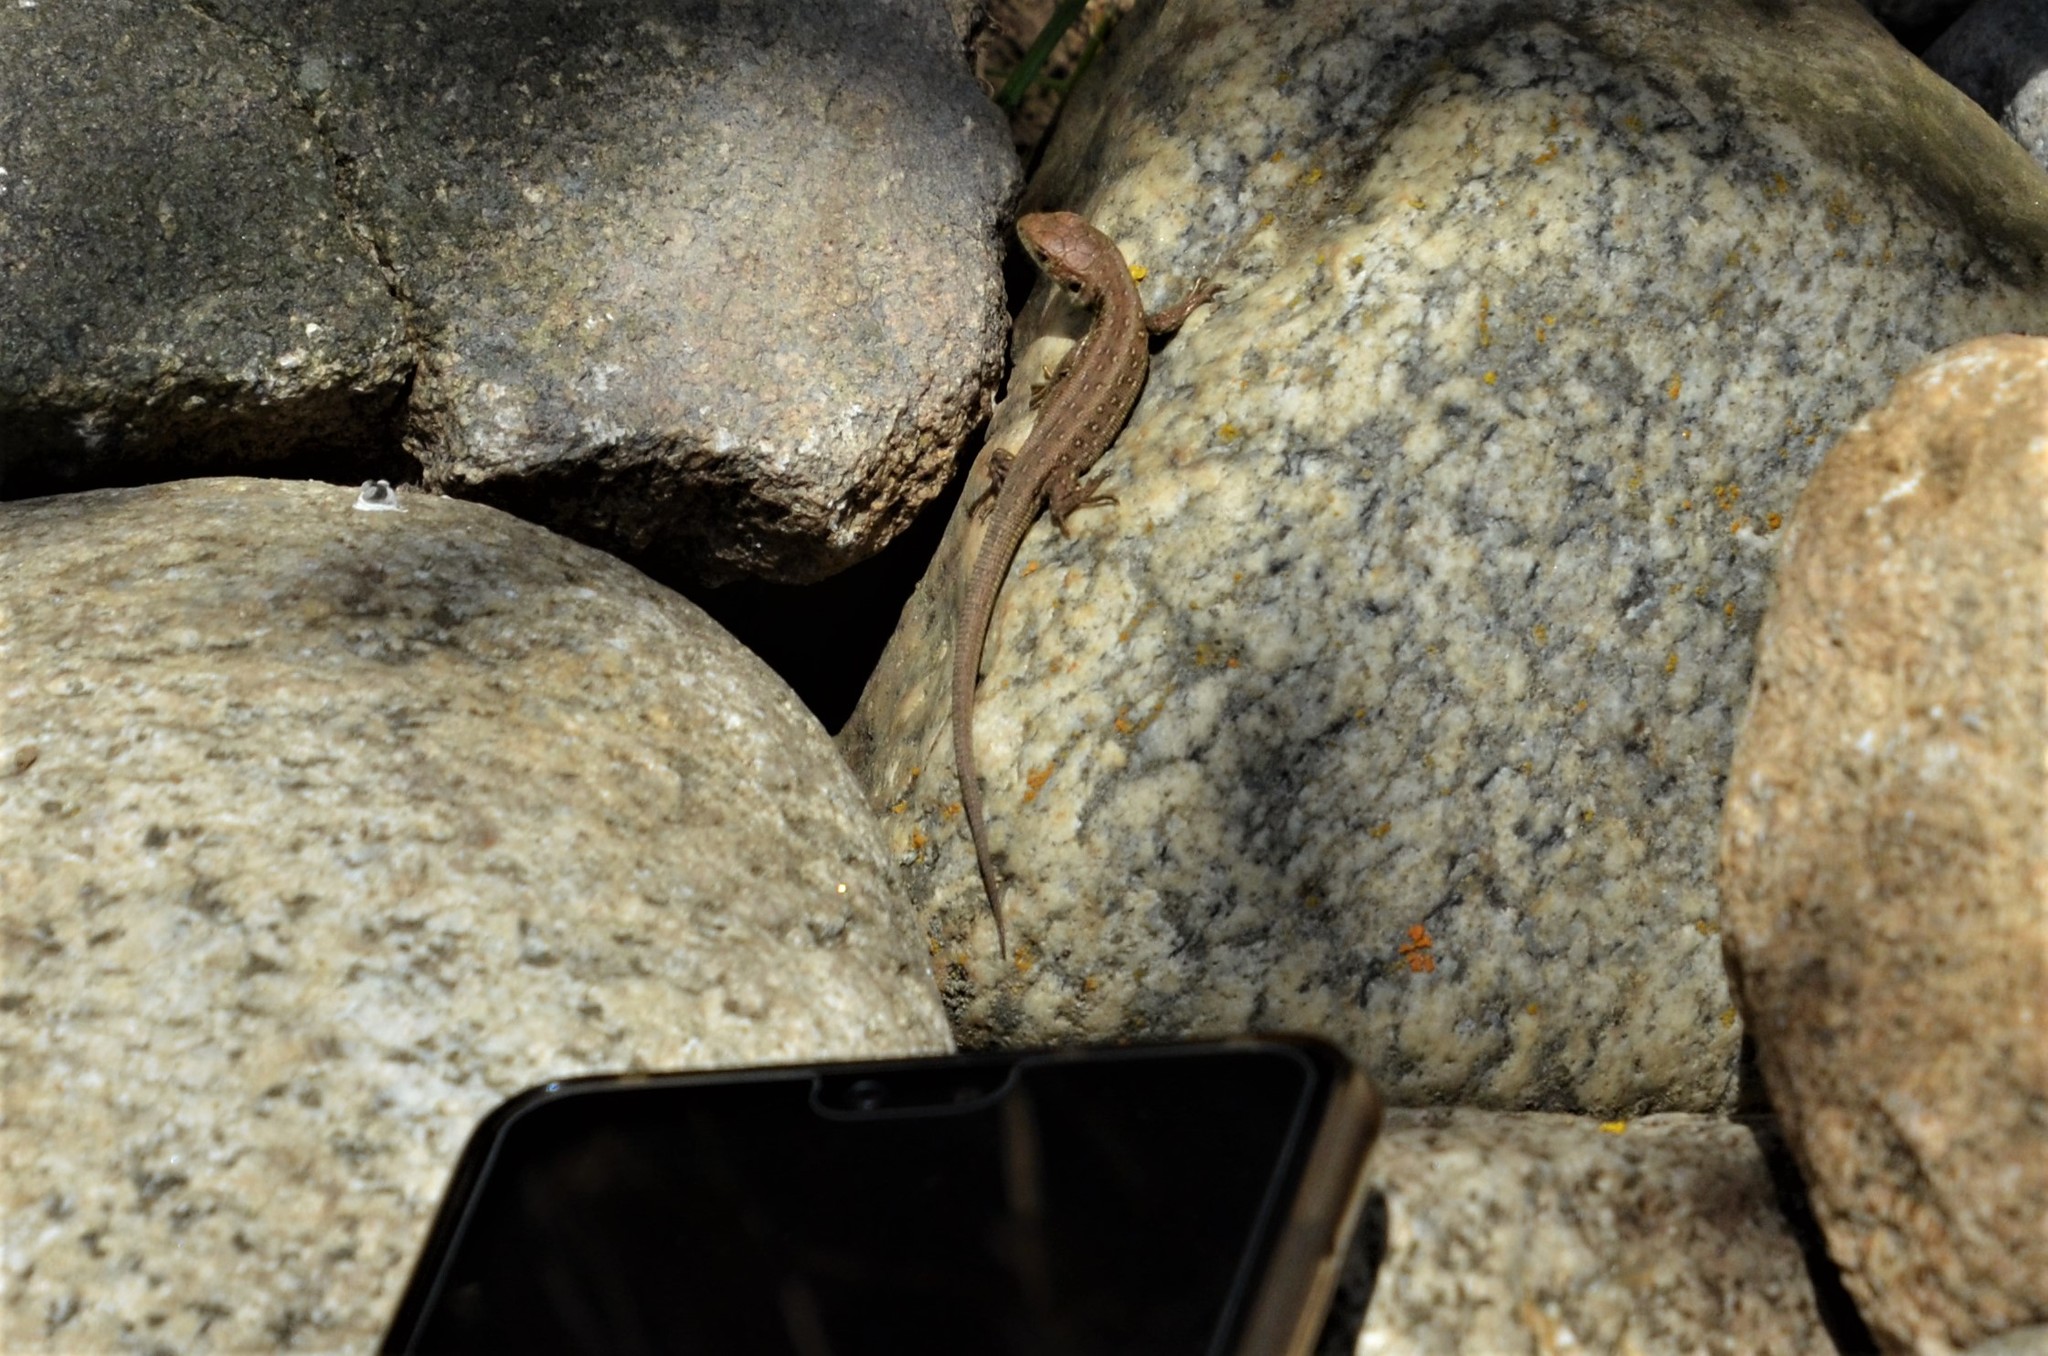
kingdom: Animalia
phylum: Chordata
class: Squamata
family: Lacertidae
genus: Lacerta
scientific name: Lacerta agilis
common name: Sand lizard
